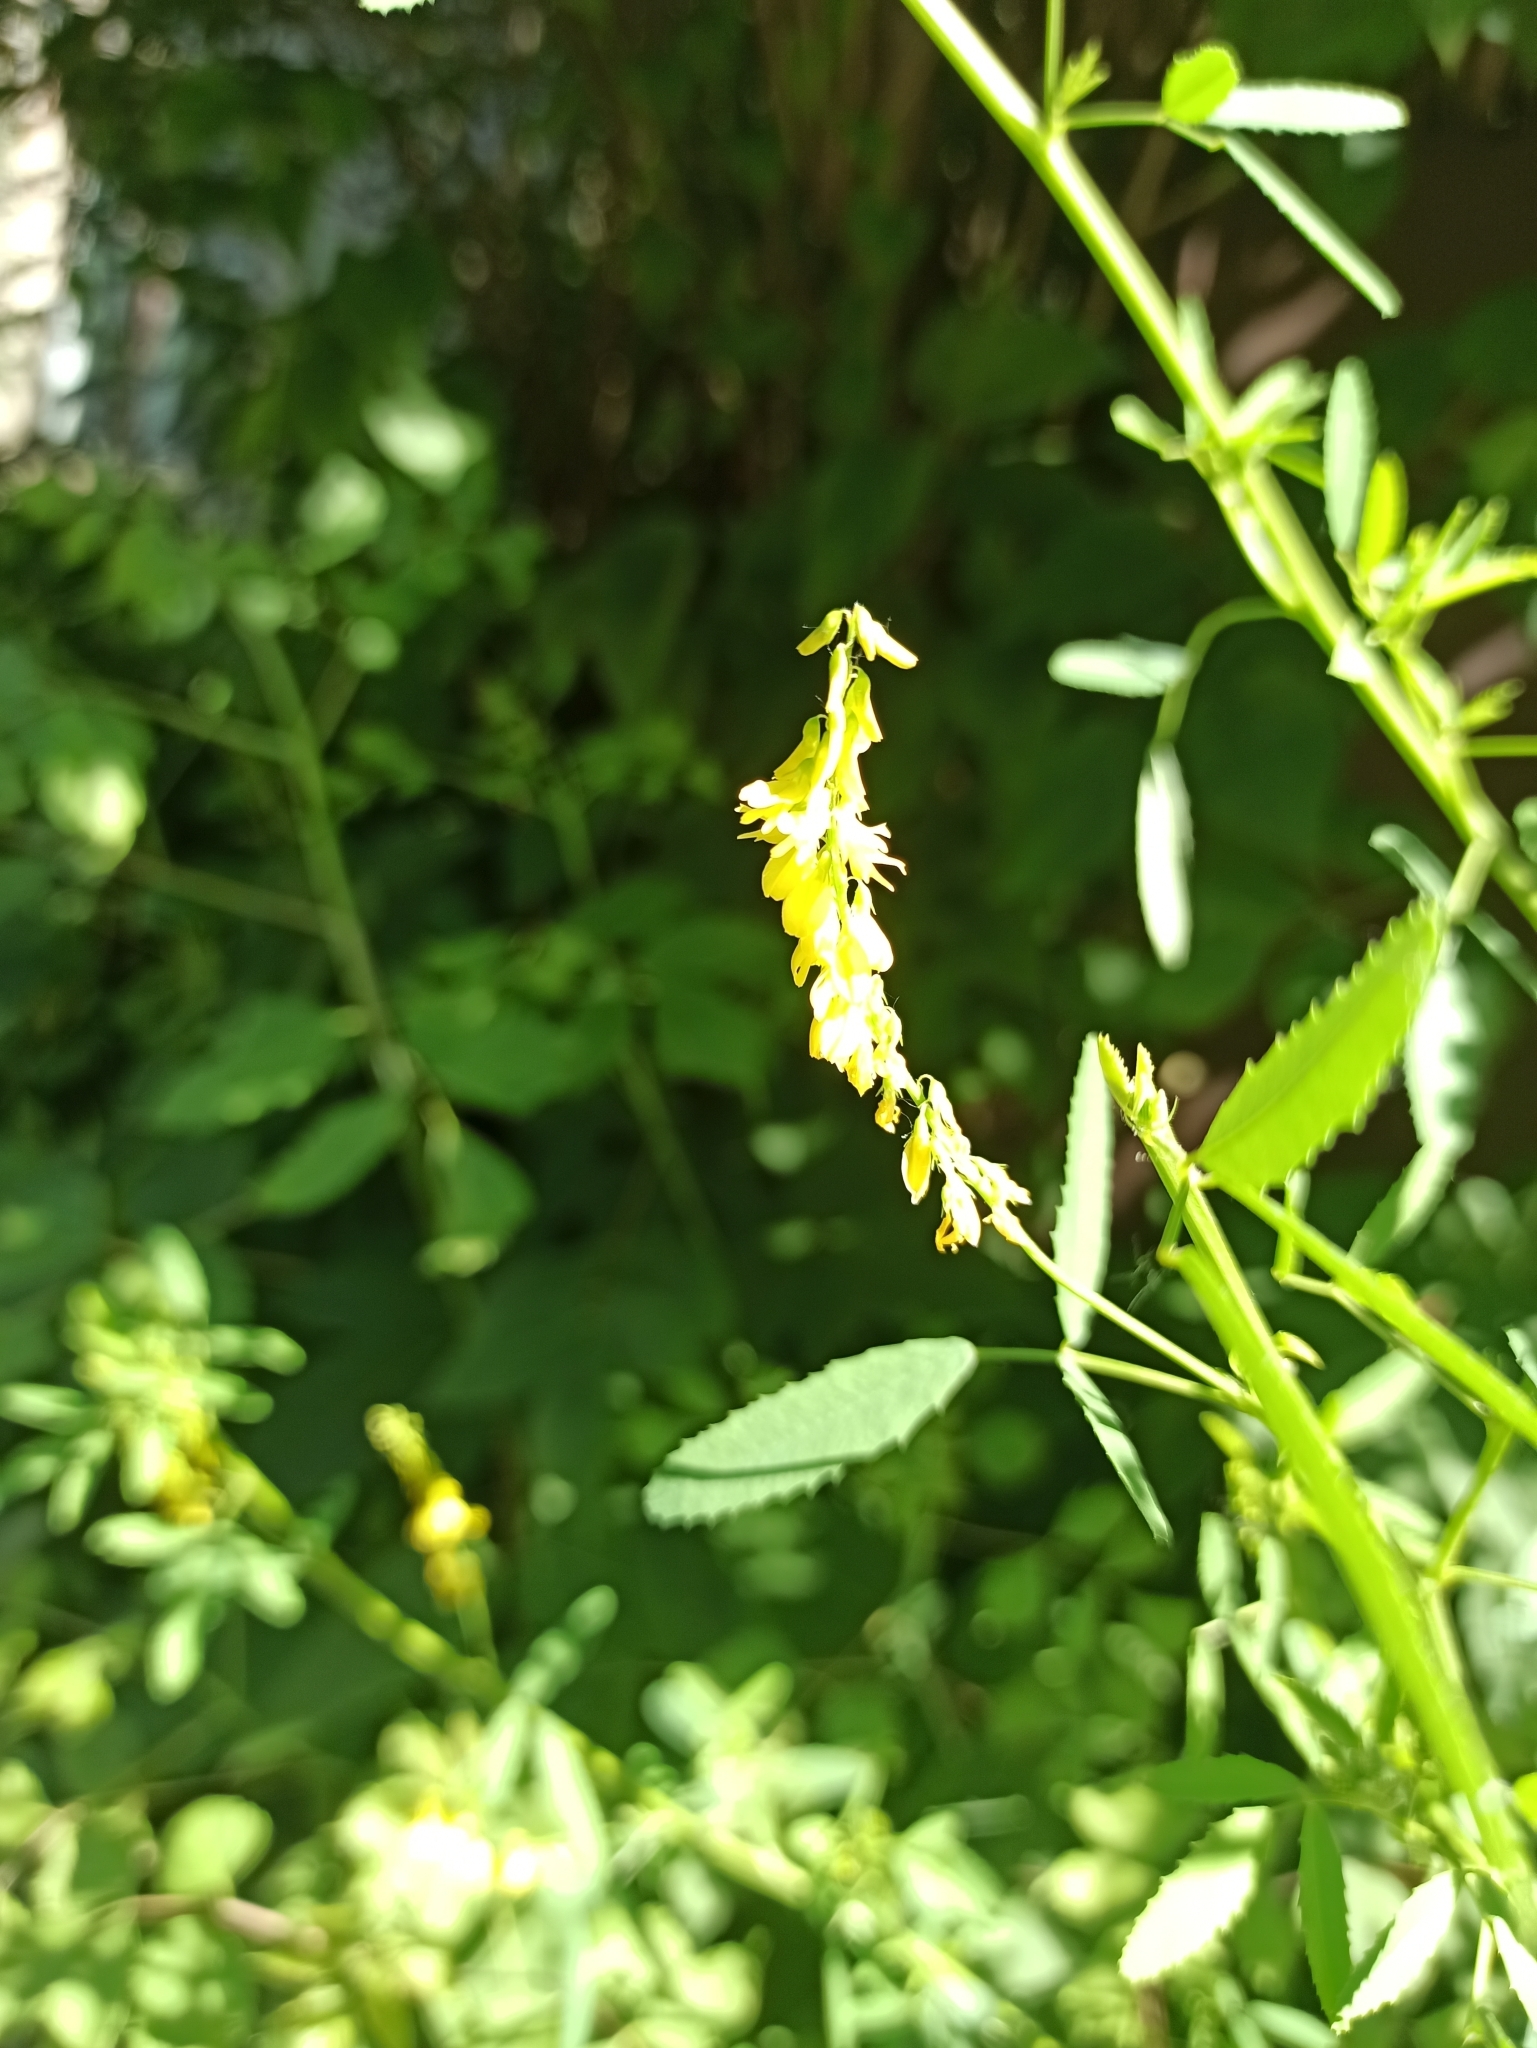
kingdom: Plantae
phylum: Tracheophyta
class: Magnoliopsida
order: Fabales
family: Fabaceae
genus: Melilotus
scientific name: Melilotus officinalis
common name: Sweetclover
